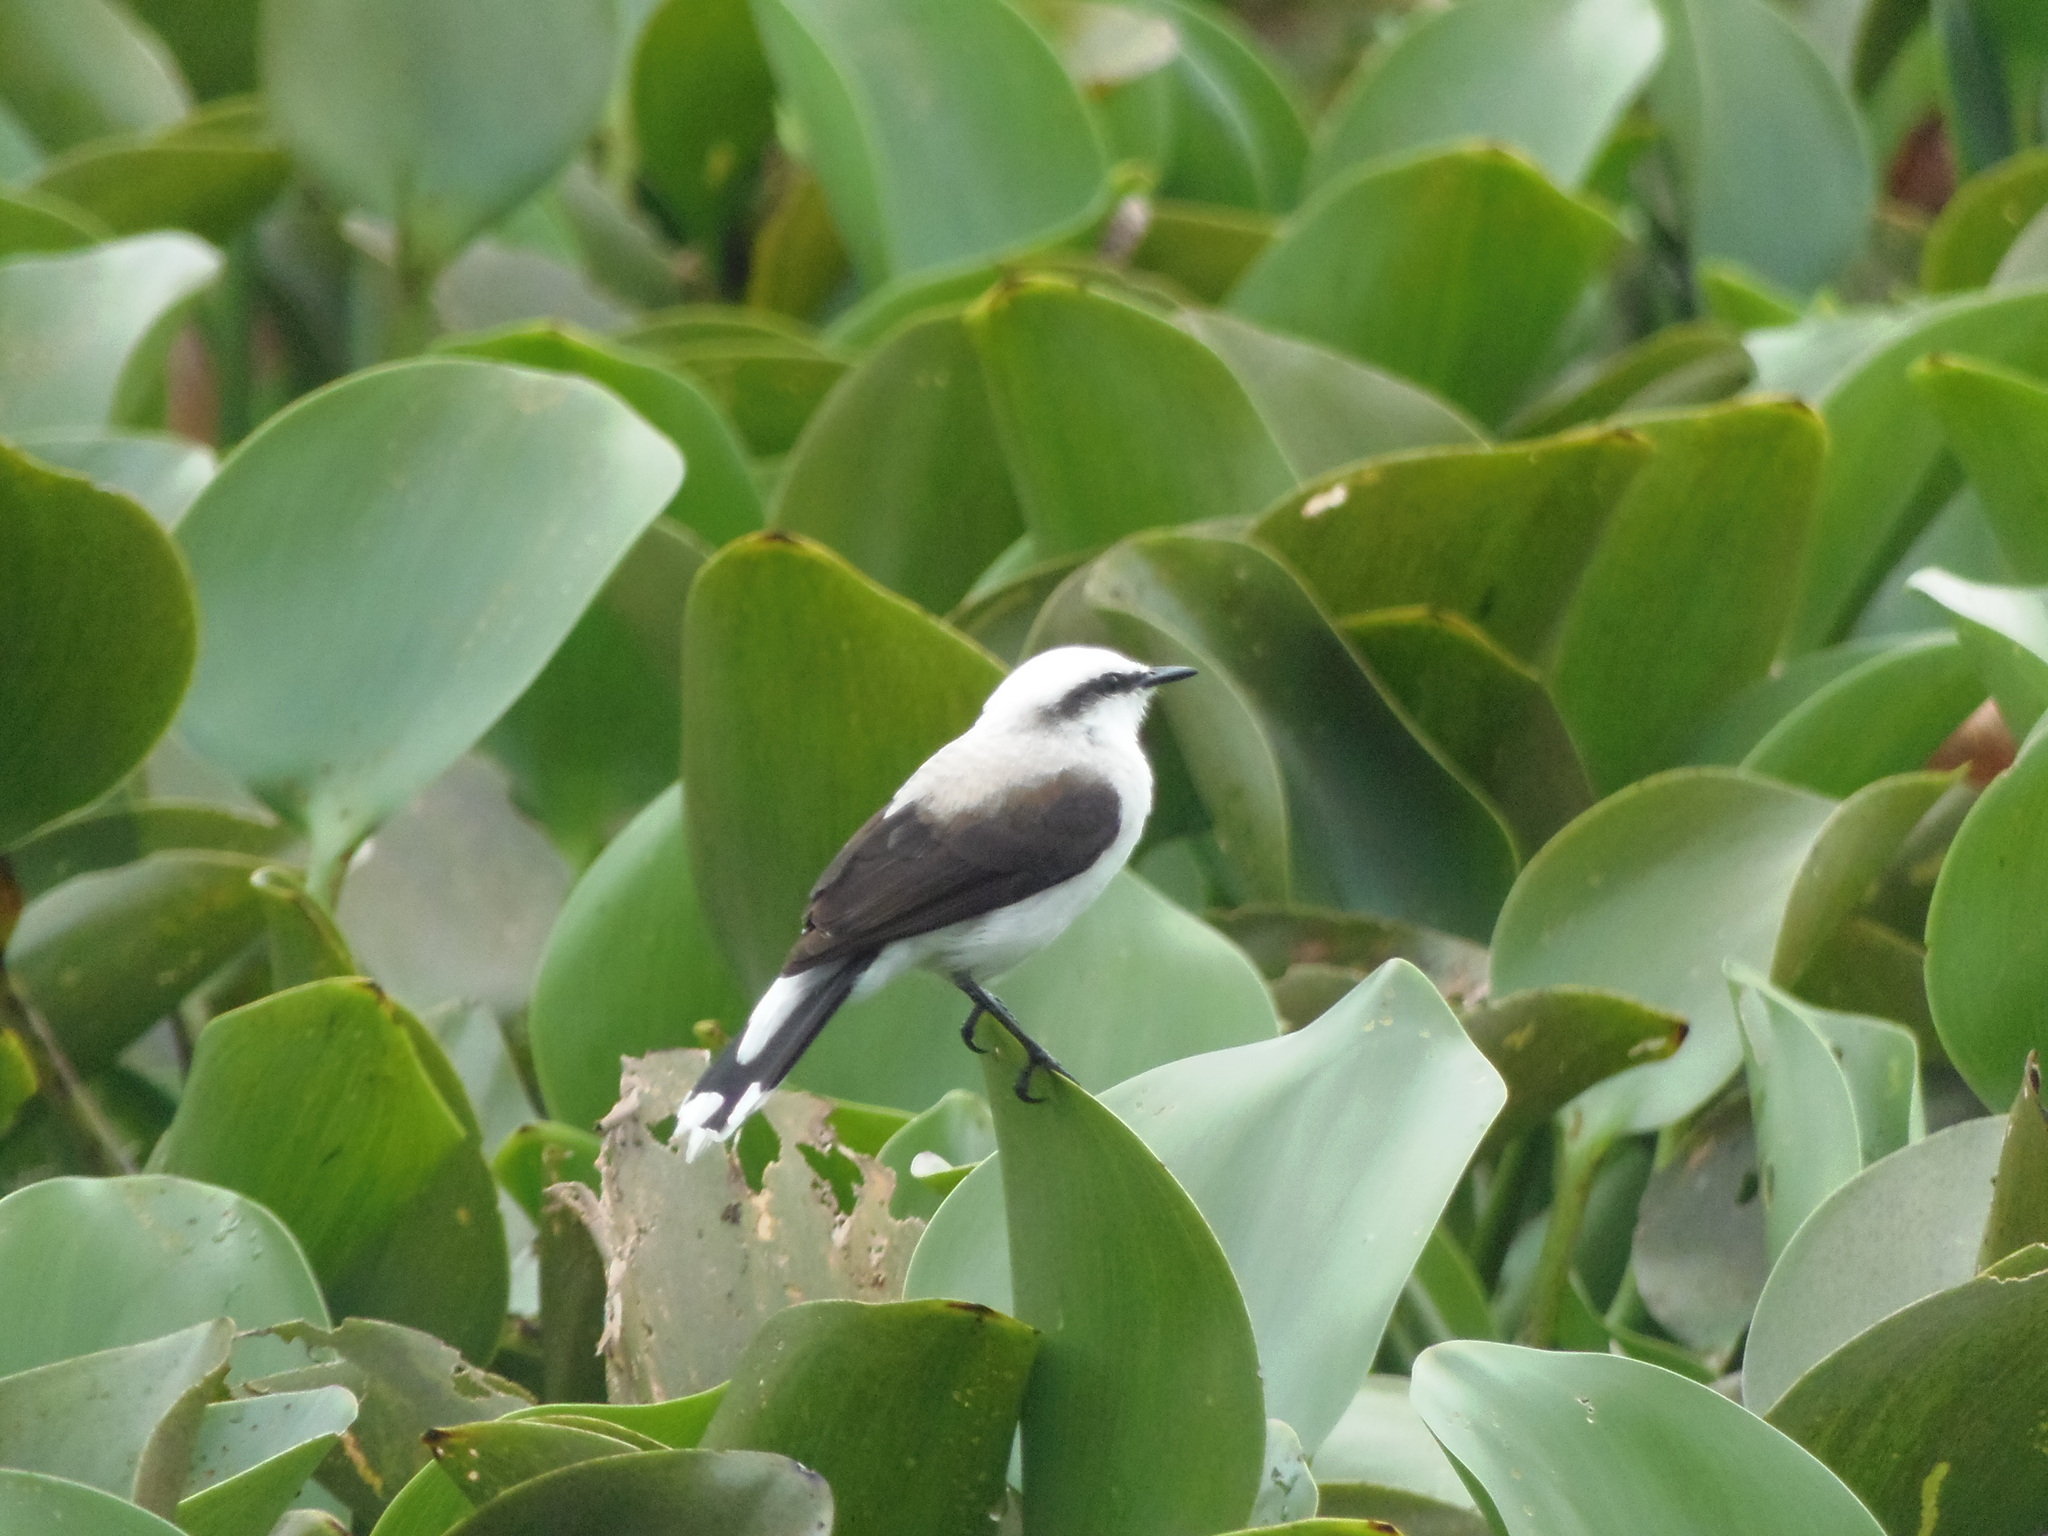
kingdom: Animalia
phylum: Chordata
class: Aves
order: Passeriformes
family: Tyrannidae
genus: Fluvicola
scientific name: Fluvicola nengeta
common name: Masked water tyrant
